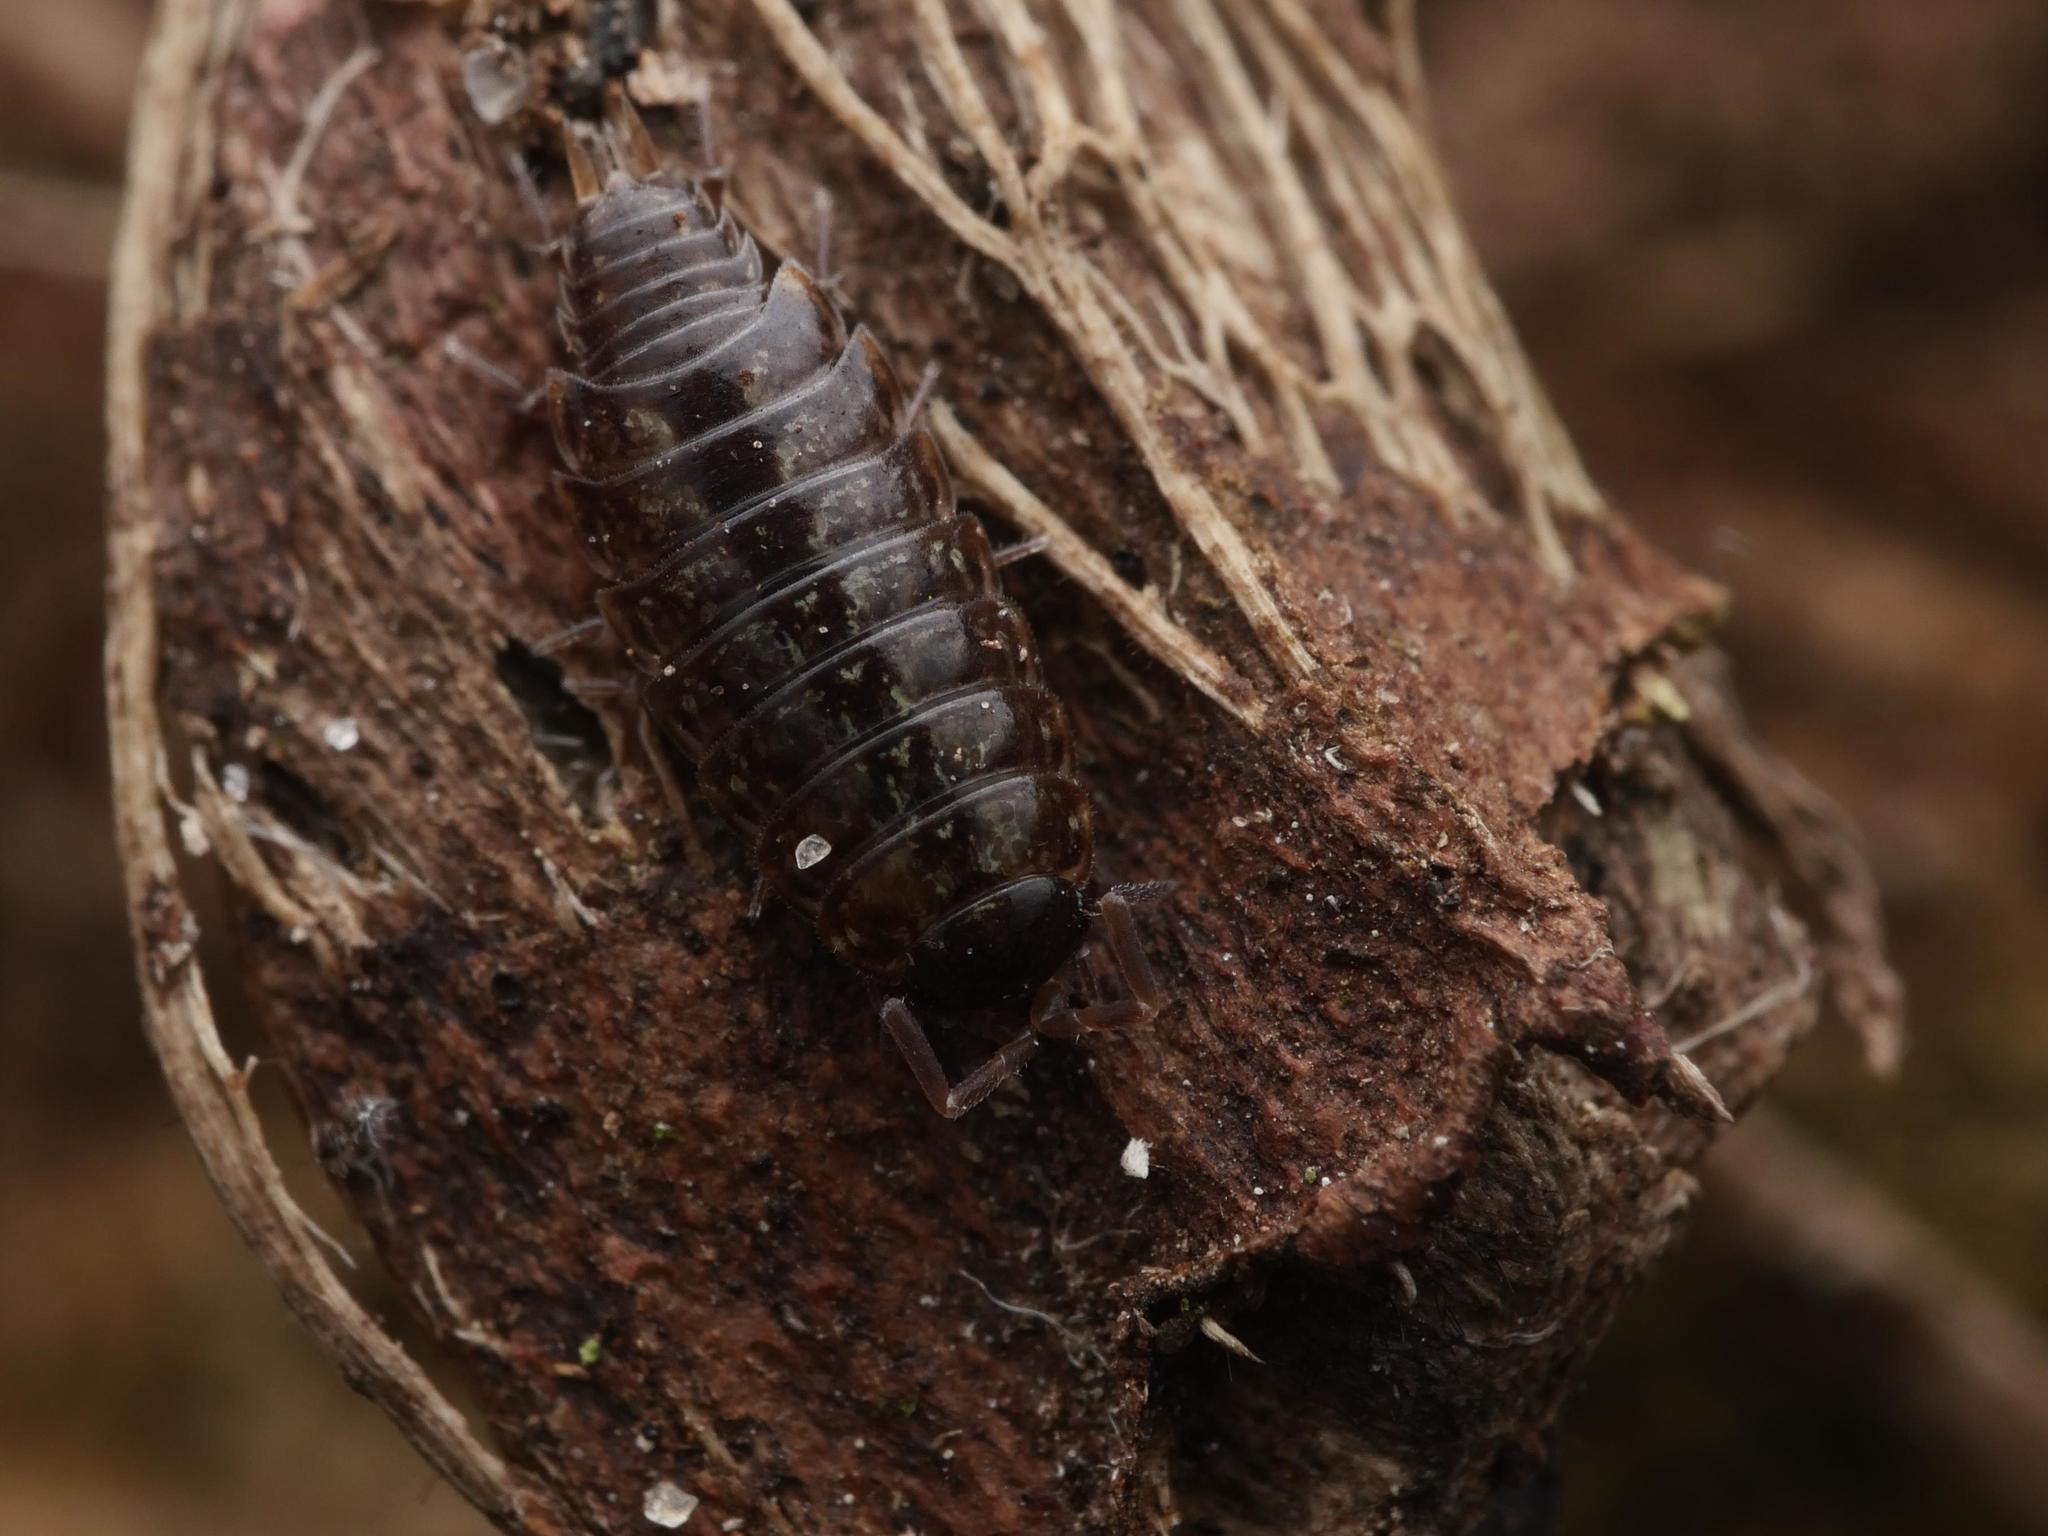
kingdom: Animalia
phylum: Arthropoda
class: Malacostraca
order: Isopoda
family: Philosciidae
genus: Philoscia
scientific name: Philoscia muscorum
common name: Common striped woodlouse
